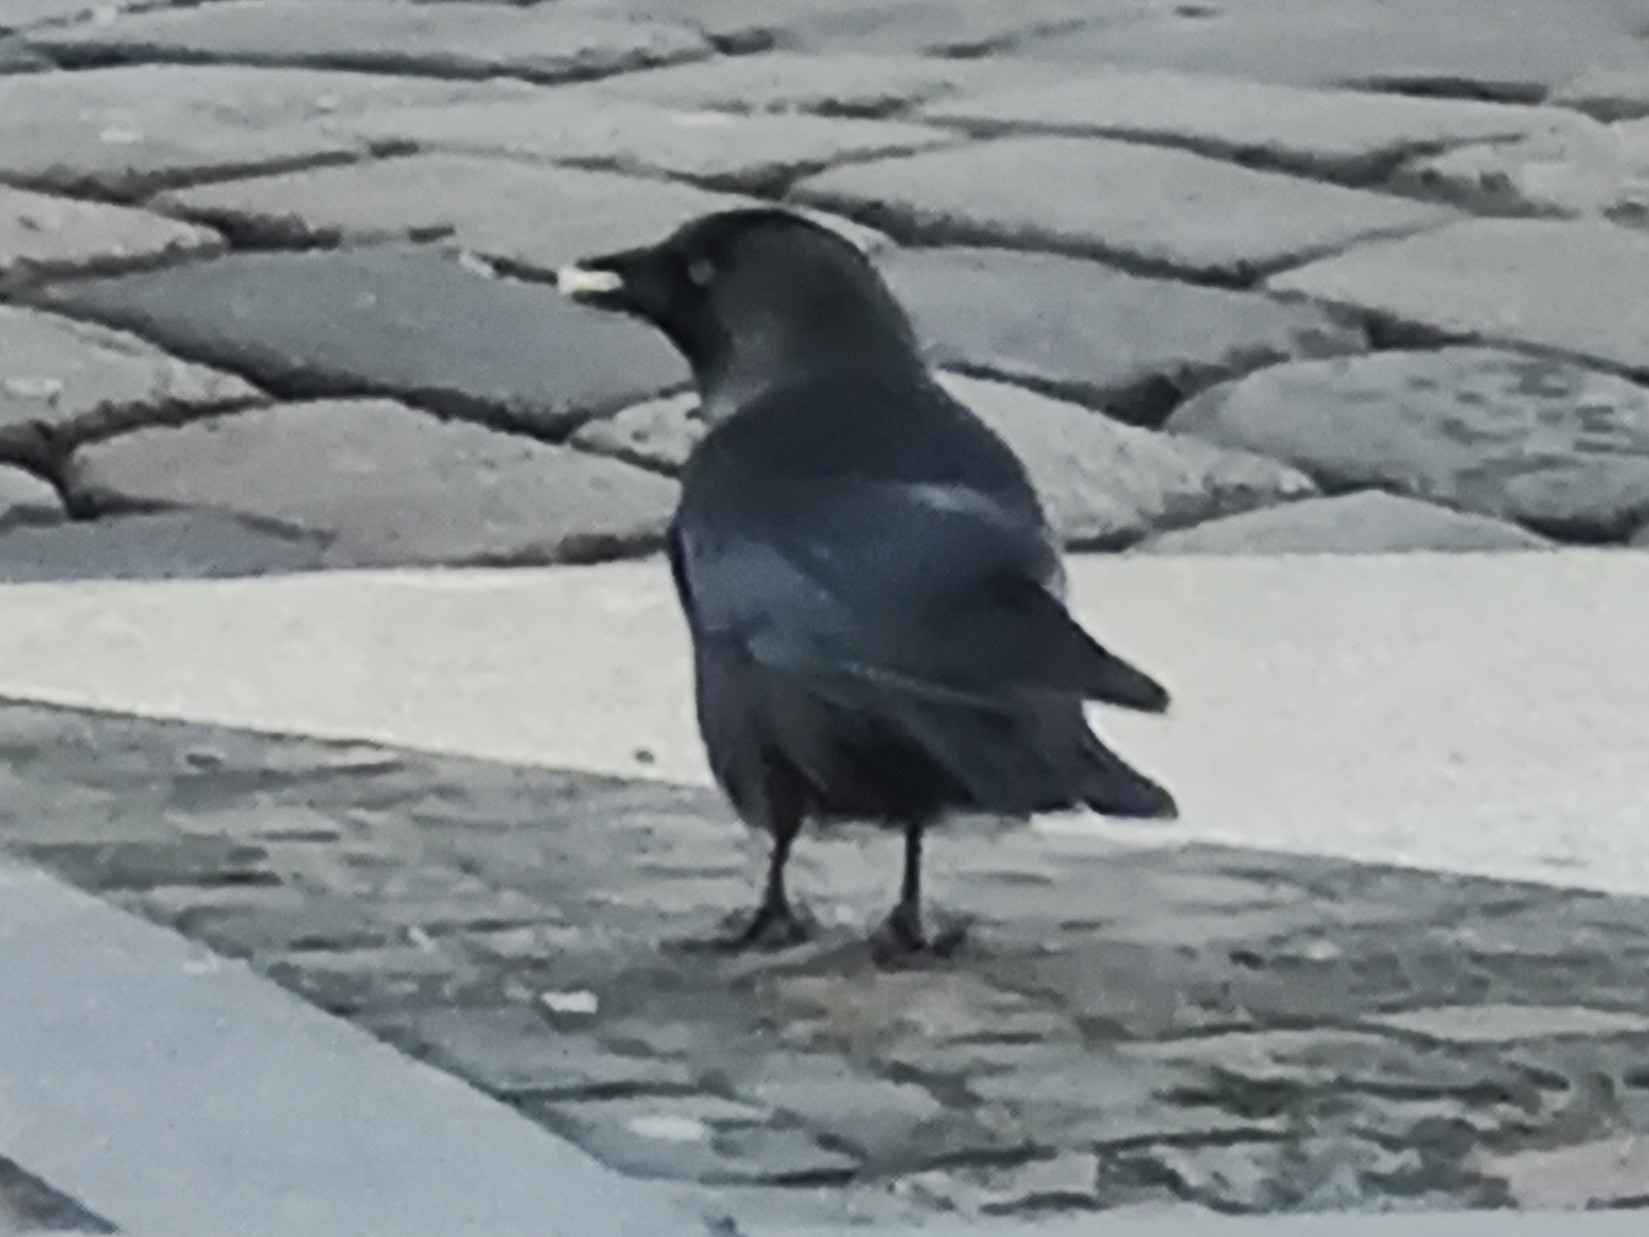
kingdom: Animalia
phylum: Chordata
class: Aves
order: Passeriformes
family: Corvidae
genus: Coloeus
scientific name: Coloeus monedula
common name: Western jackdaw
